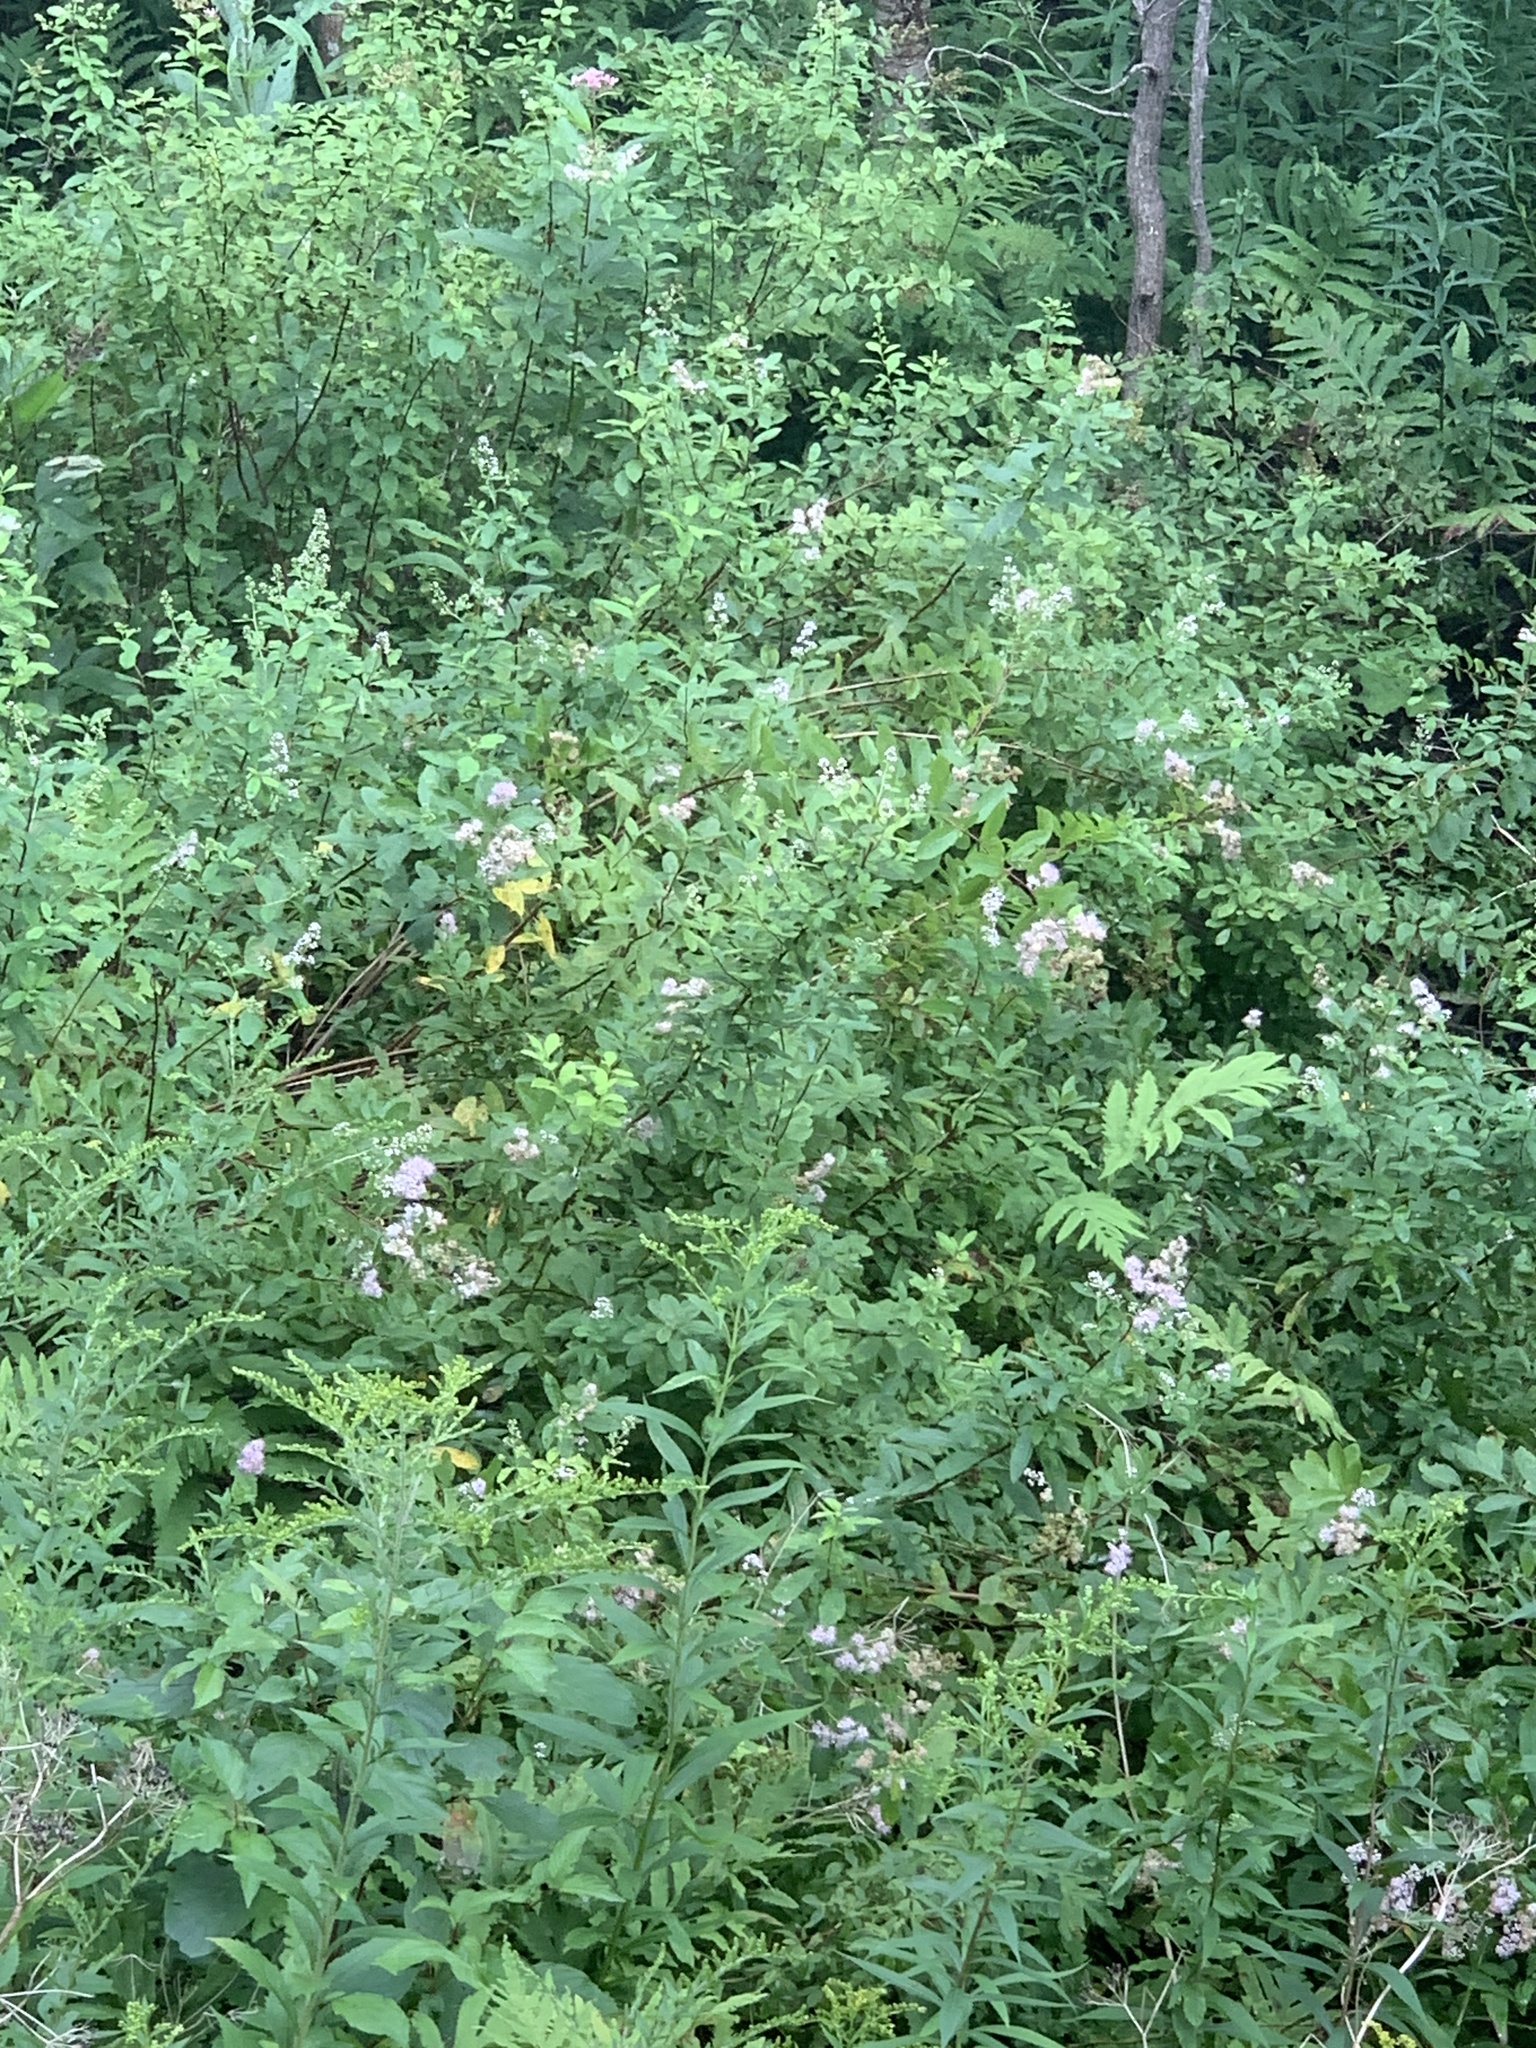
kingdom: Plantae
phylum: Tracheophyta
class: Magnoliopsida
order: Rosales
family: Rosaceae
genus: Spiraea
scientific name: Spiraea alba
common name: Pale bridewort
